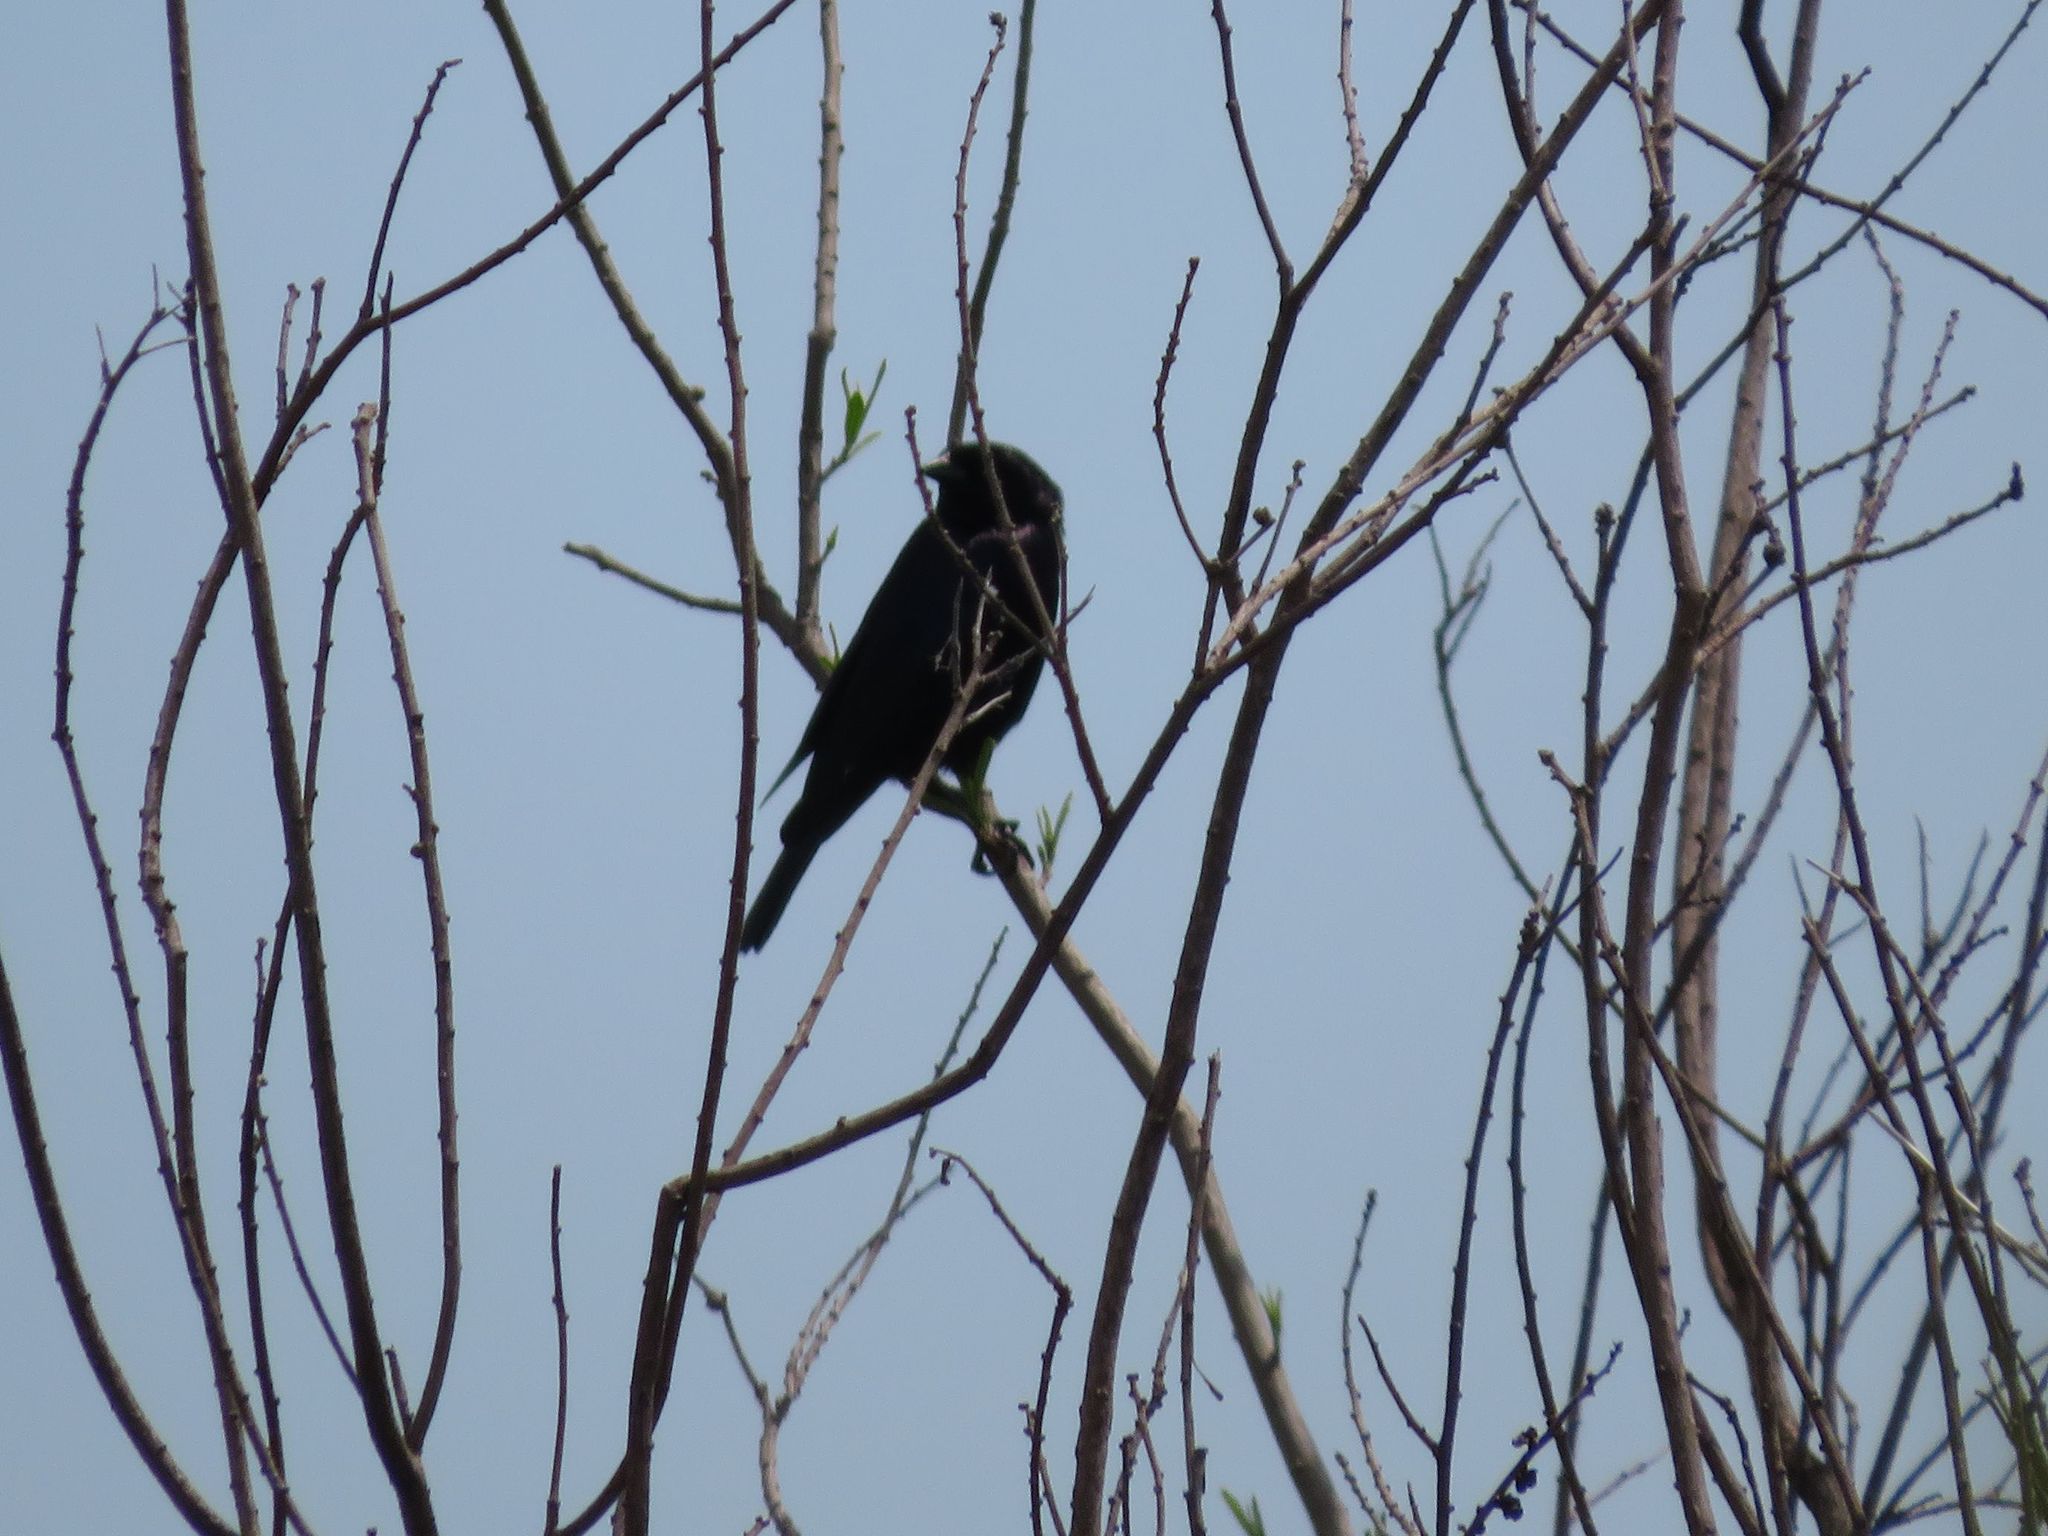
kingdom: Animalia
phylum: Chordata
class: Aves
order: Passeriformes
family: Icteridae
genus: Molothrus
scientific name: Molothrus bonariensis
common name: Shiny cowbird
